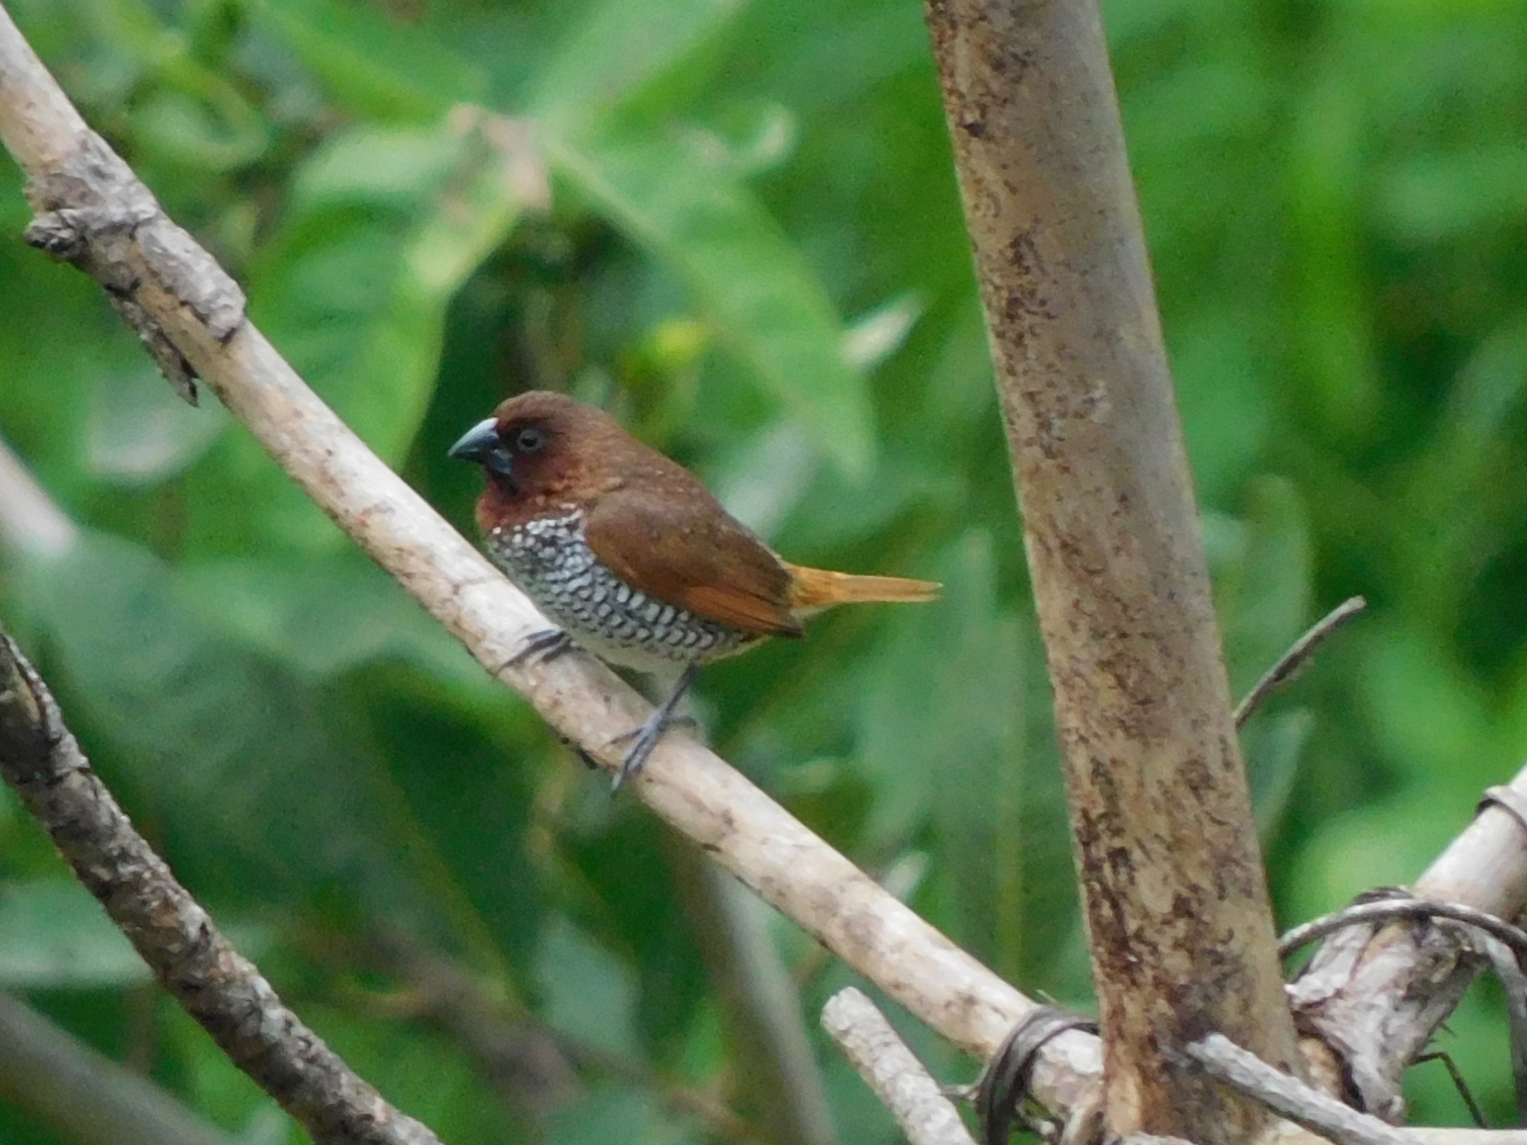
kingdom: Animalia
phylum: Chordata
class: Aves
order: Passeriformes
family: Estrildidae
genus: Lonchura
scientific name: Lonchura punctulata
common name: Scaly-breasted munia
